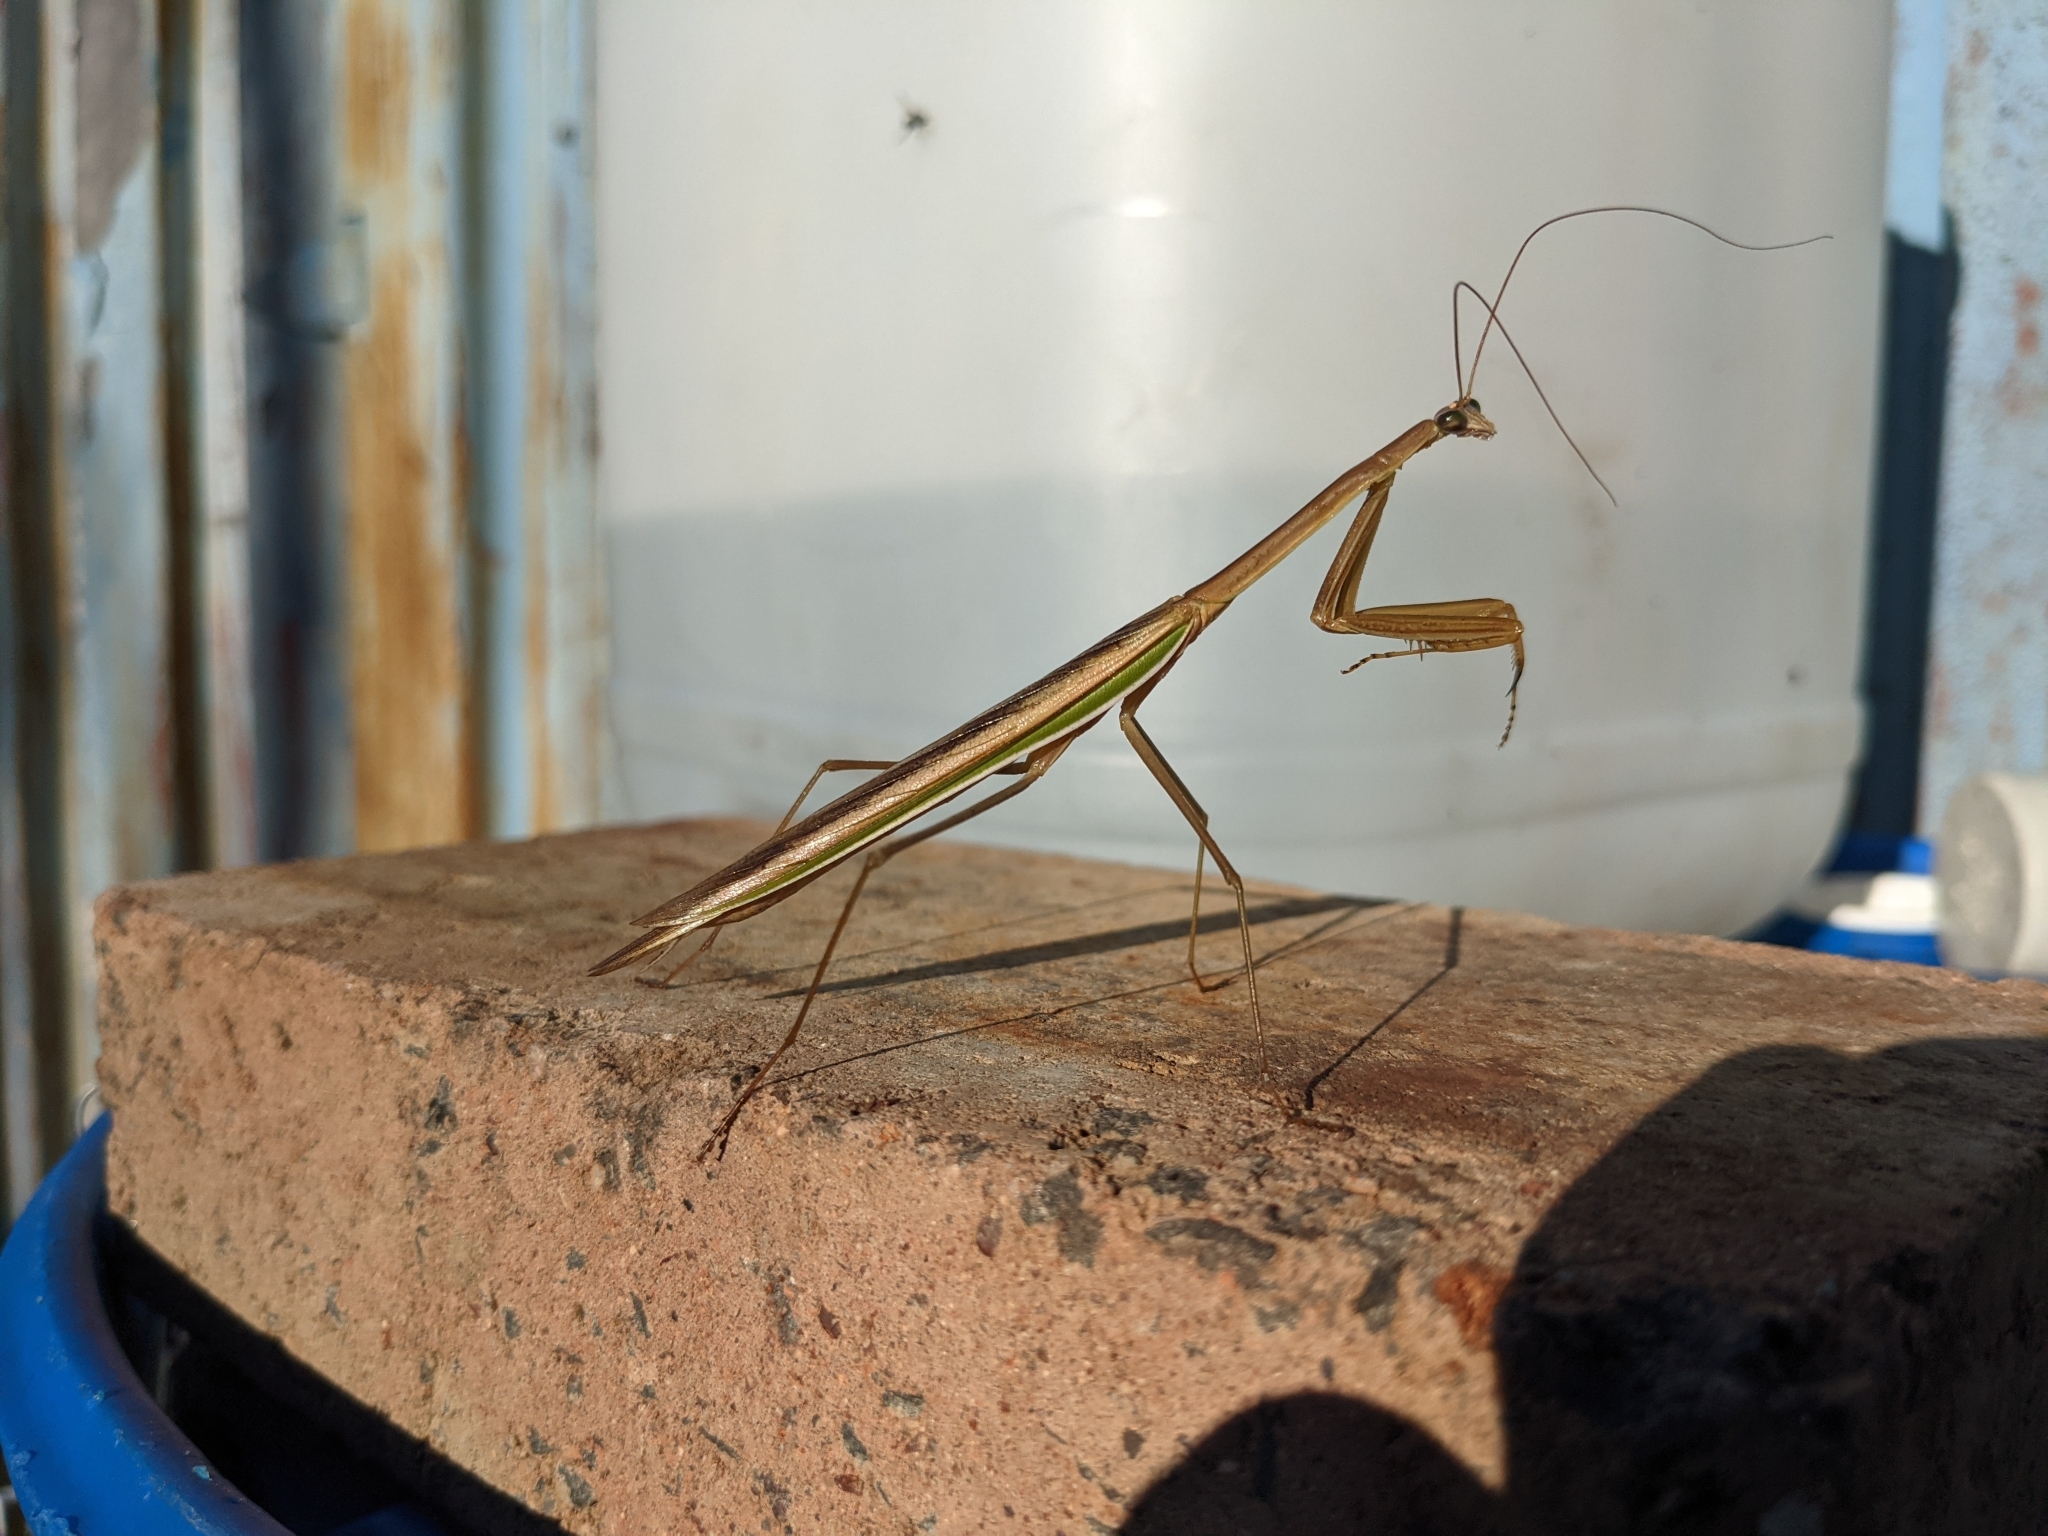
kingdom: Animalia
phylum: Arthropoda
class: Insecta
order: Mantodea
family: Mantidae
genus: Tenodera
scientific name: Tenodera australasiae
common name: Purple-winged mantis
